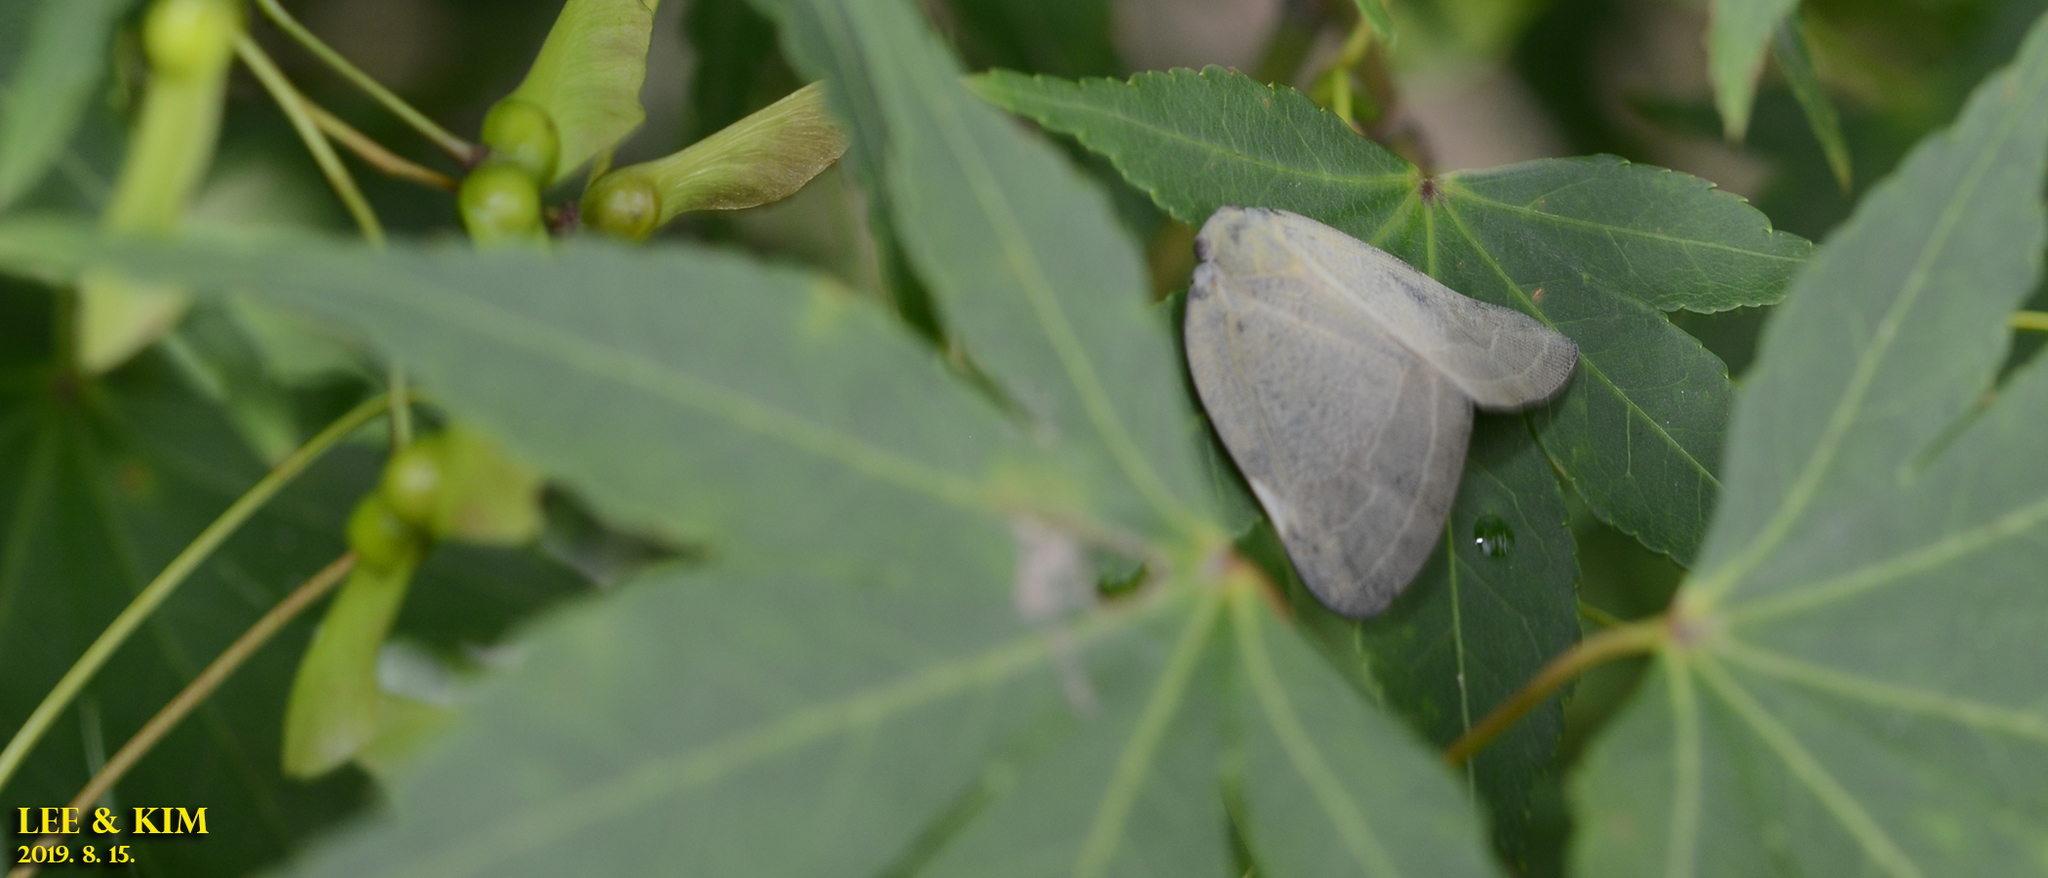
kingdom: Animalia
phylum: Arthropoda
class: Insecta
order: Hemiptera
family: Ricaniidae
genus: Ricanula
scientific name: Ricanula sublimata
